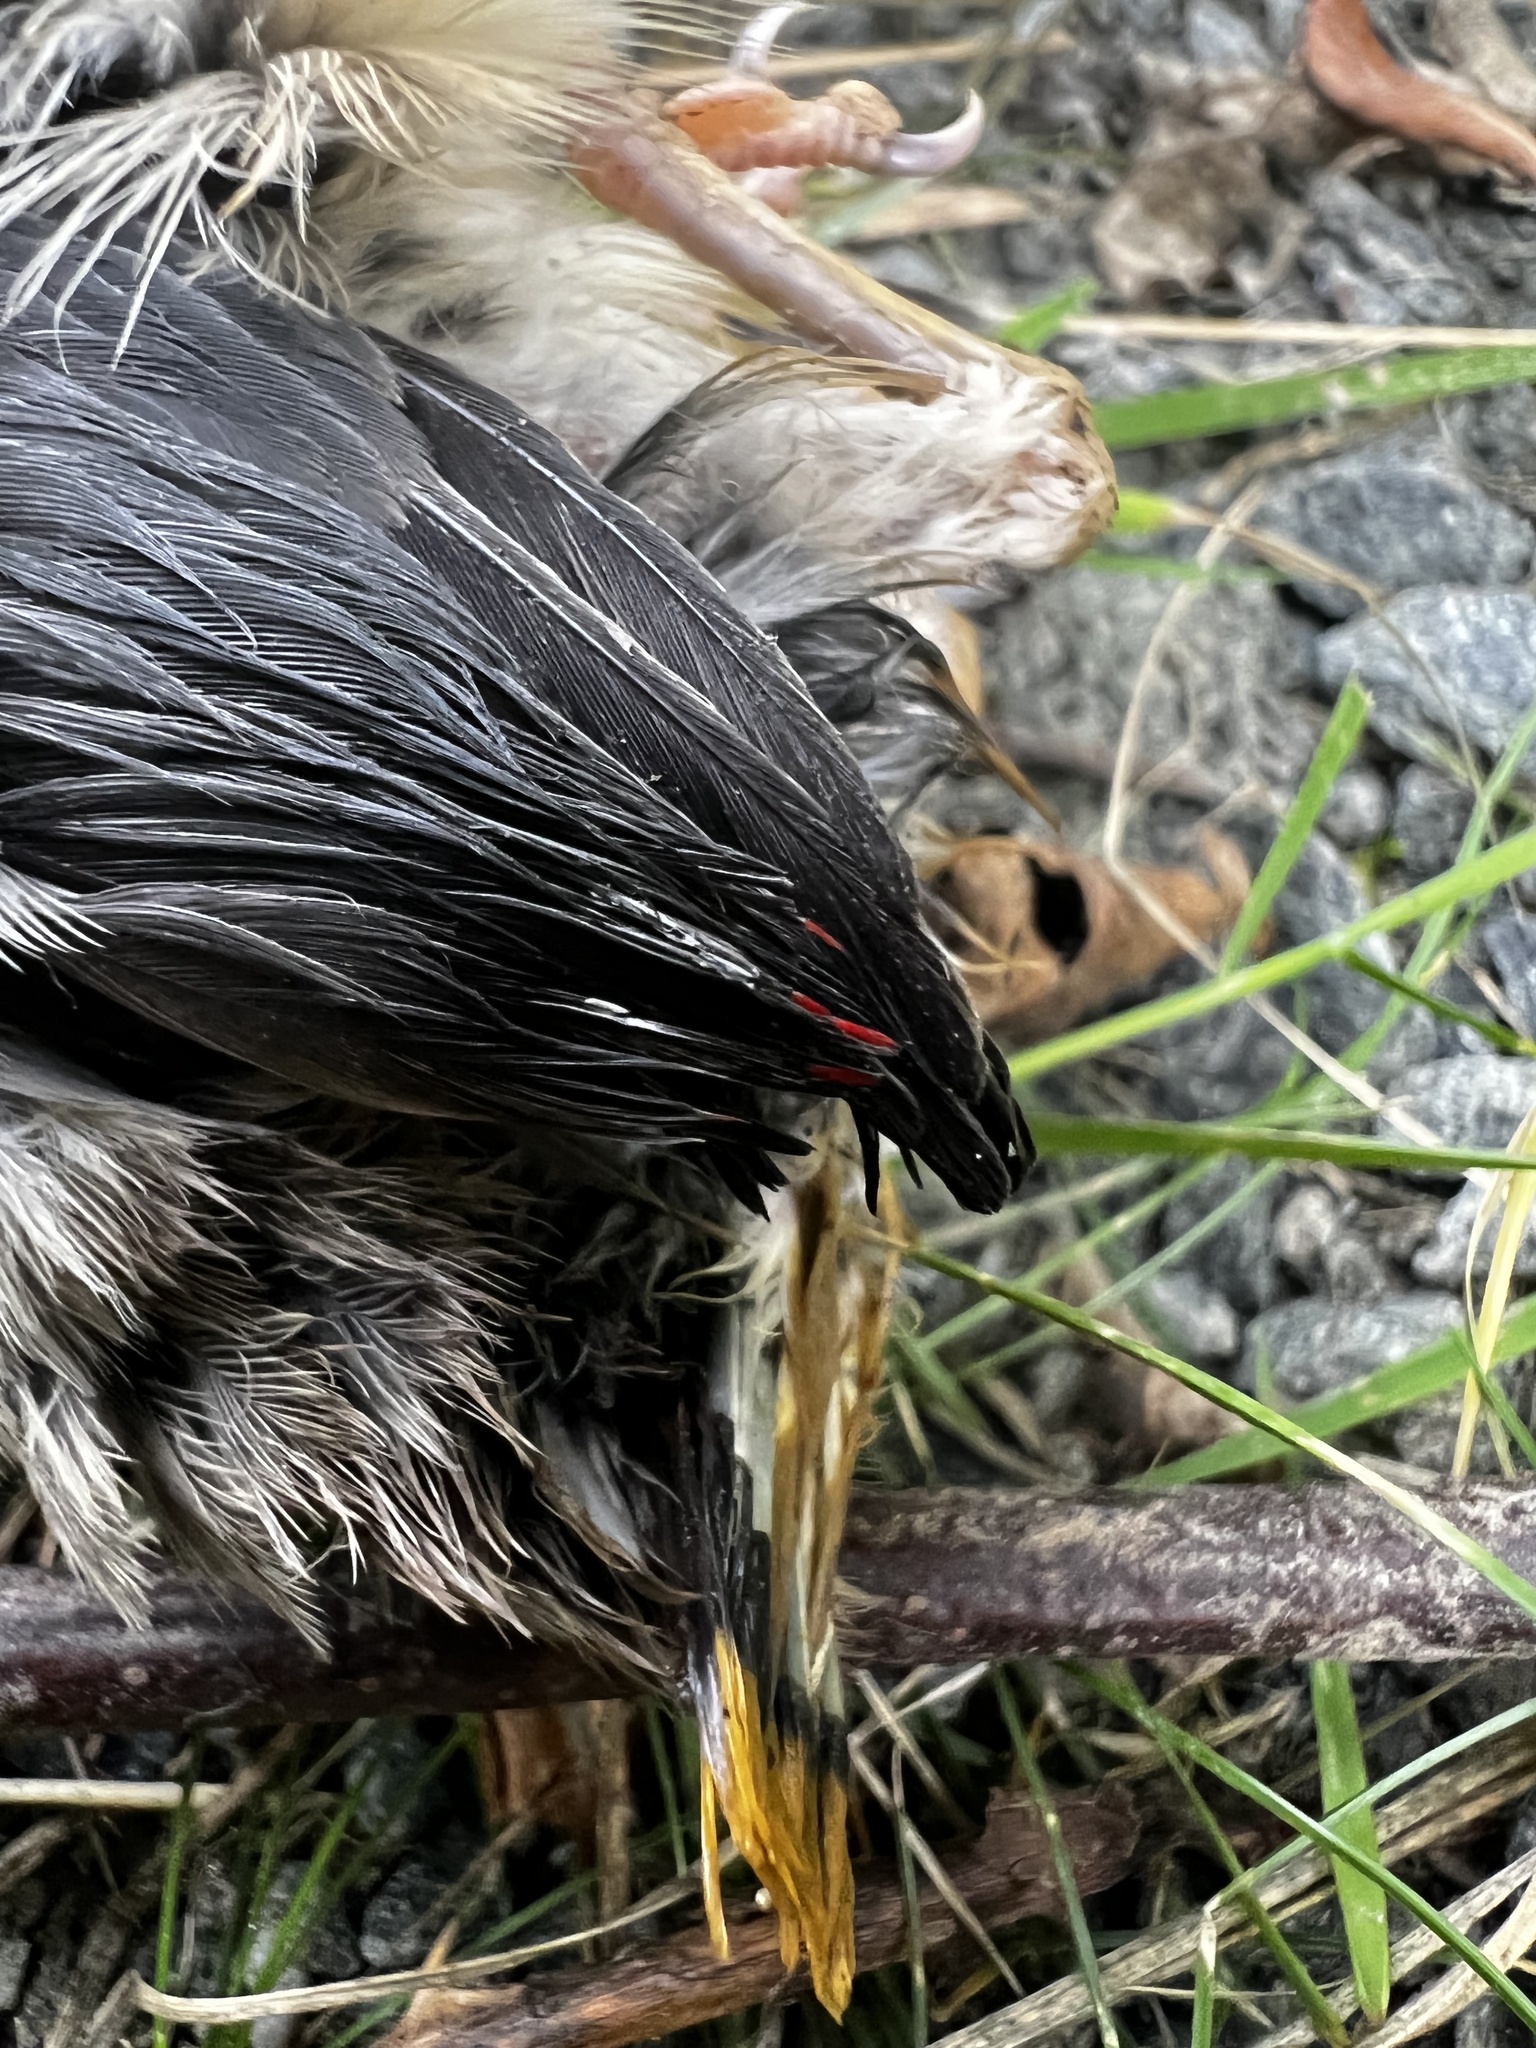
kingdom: Animalia
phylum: Chordata
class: Aves
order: Passeriformes
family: Bombycillidae
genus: Bombycilla
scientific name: Bombycilla cedrorum
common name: Cedar waxwing
